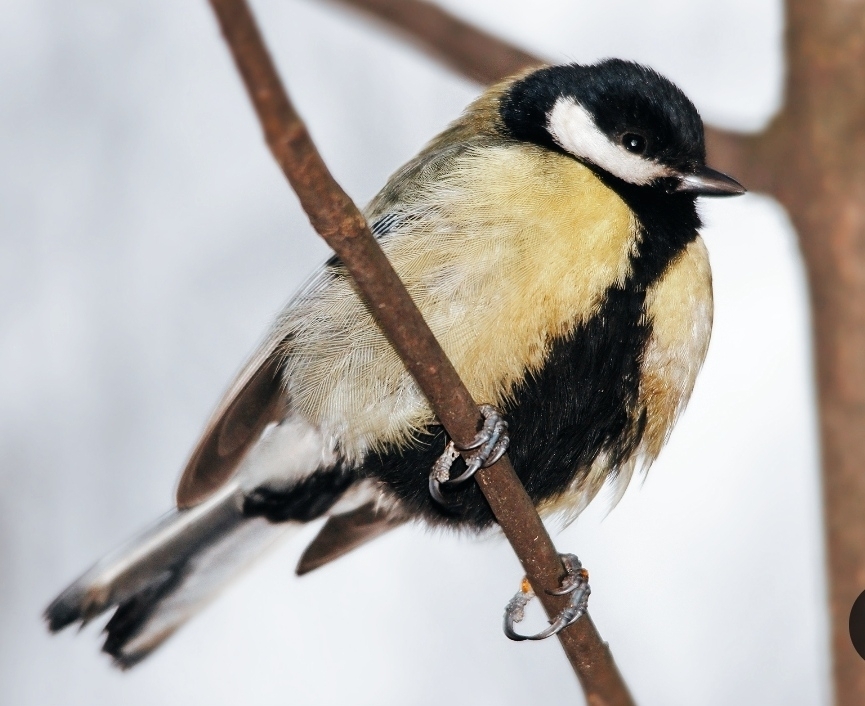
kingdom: Animalia
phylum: Chordata
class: Aves
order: Passeriformes
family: Paridae
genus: Parus
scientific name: Parus major
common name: Great tit
